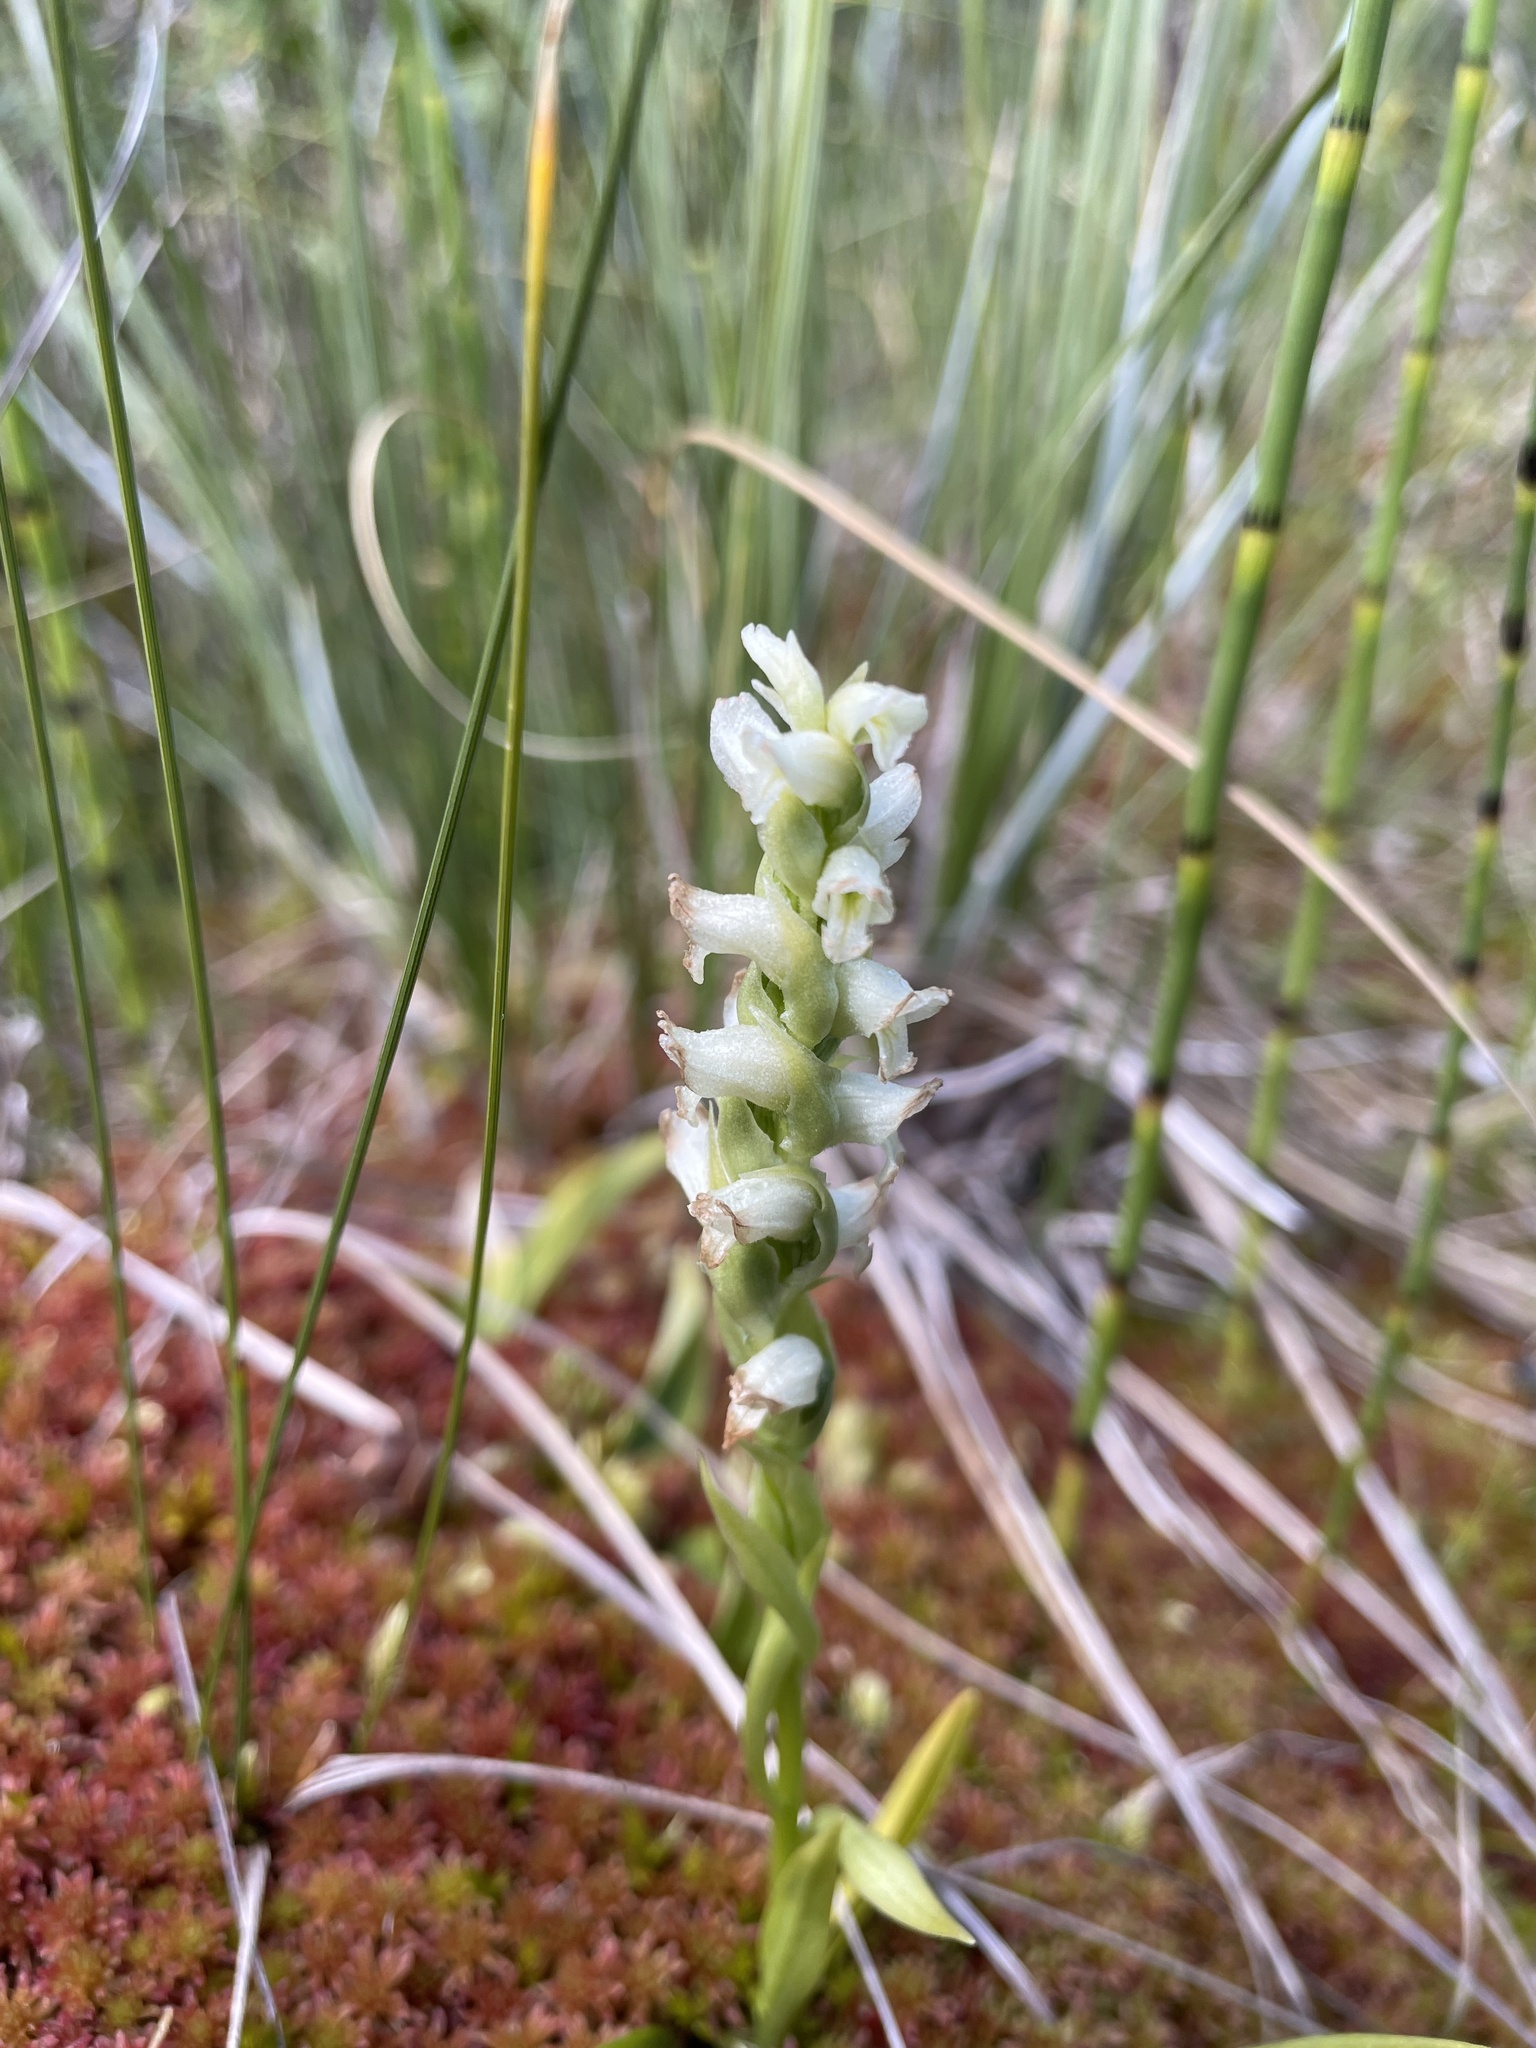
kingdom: Plantae
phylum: Tracheophyta
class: Liliopsida
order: Asparagales
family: Orchidaceae
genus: Spiranthes
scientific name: Spiranthes romanzoffiana
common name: Irish lady's-tresses
